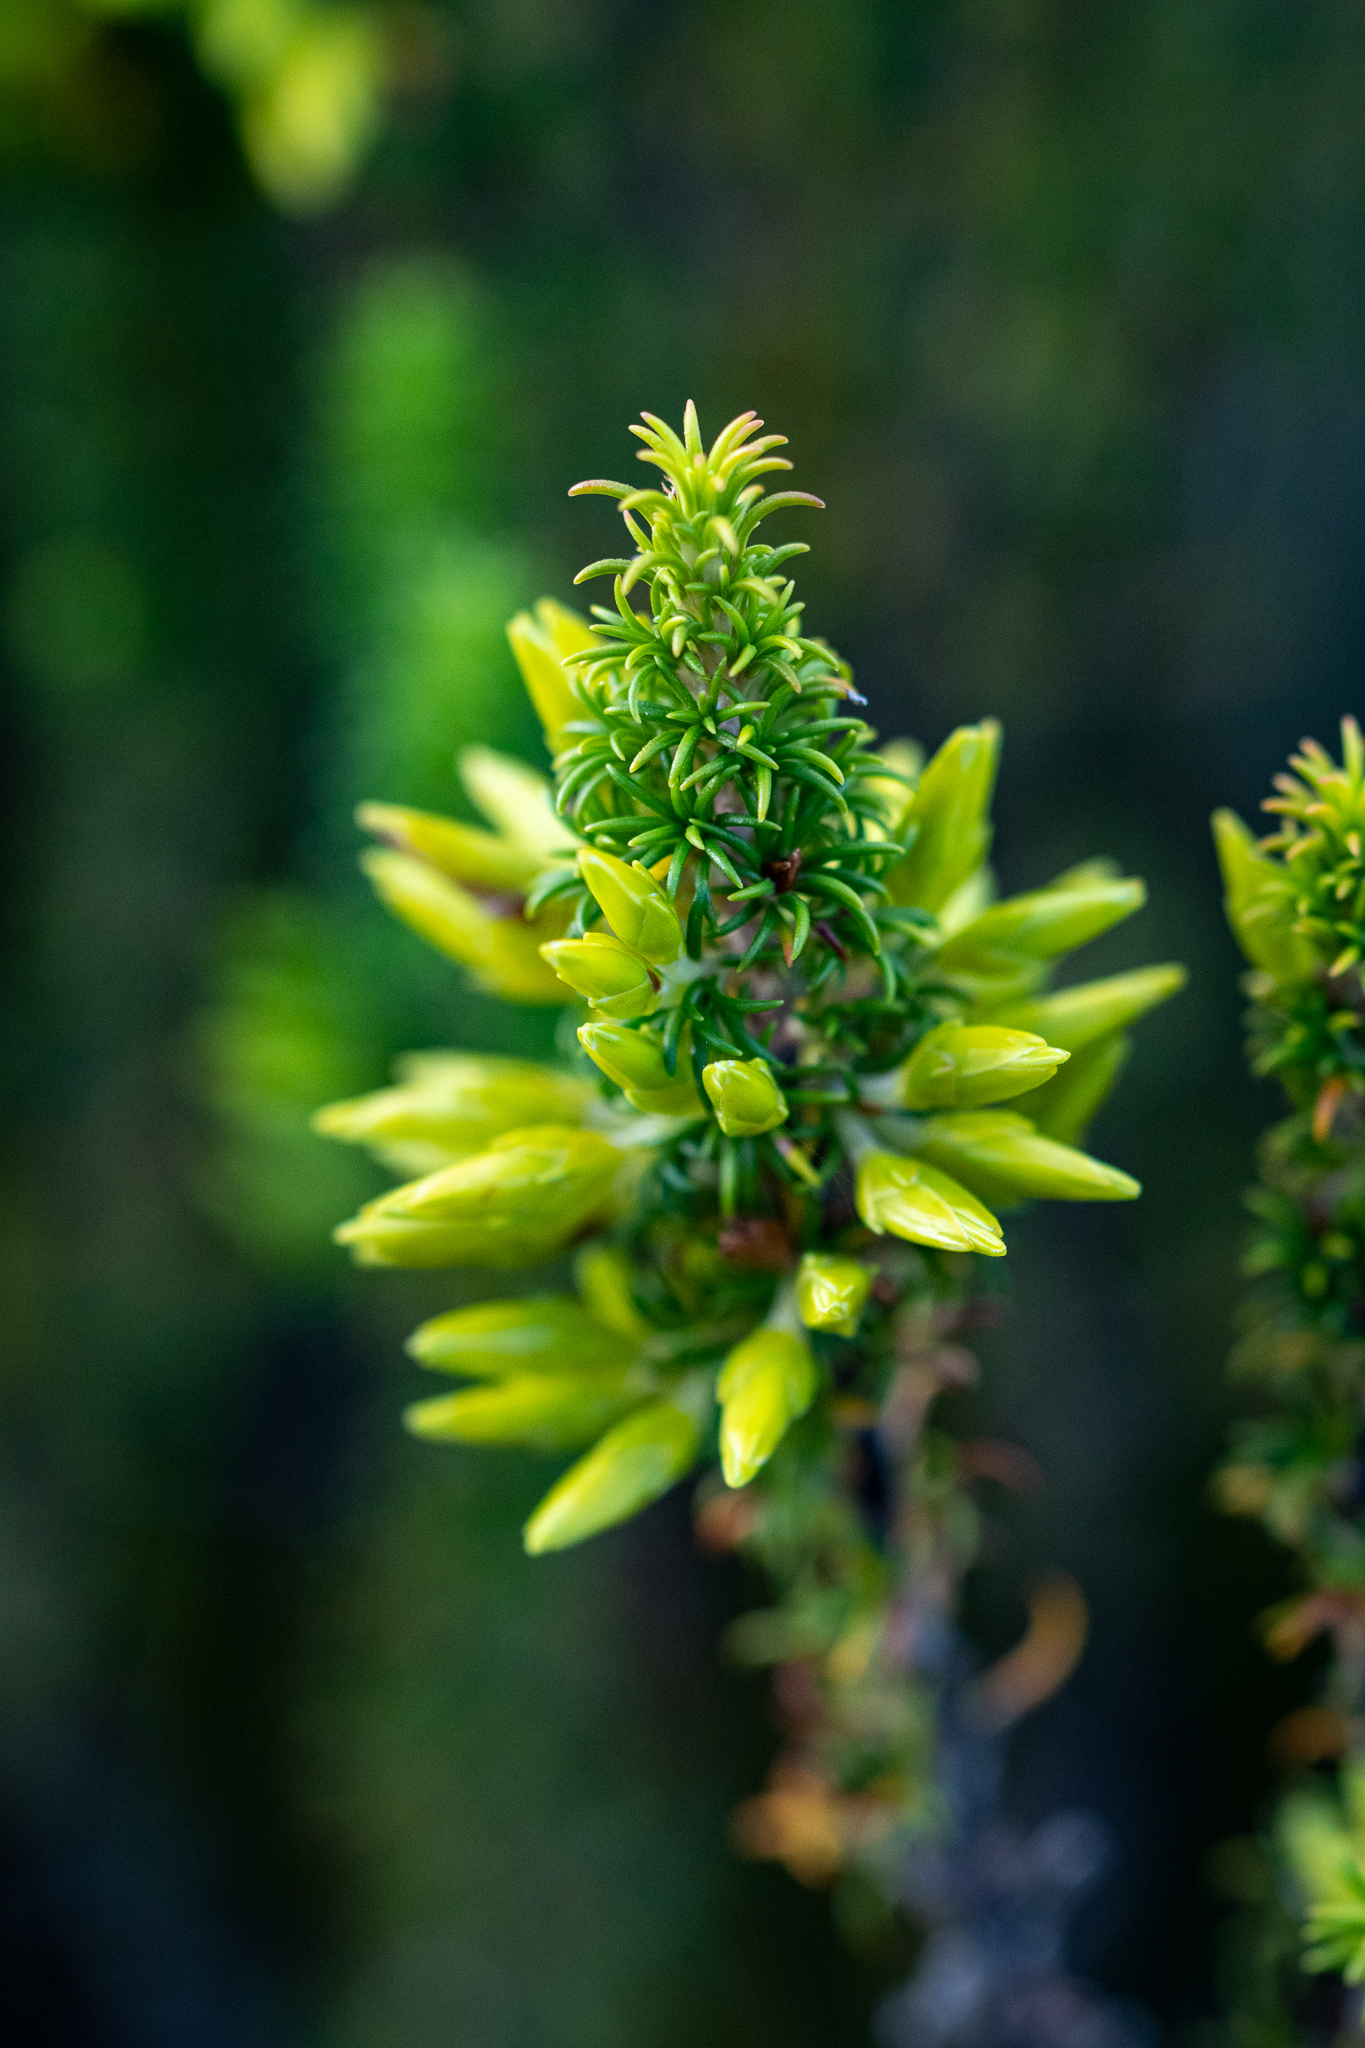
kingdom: Plantae
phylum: Tracheophyta
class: Magnoliopsida
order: Ericales
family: Ericaceae
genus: Erica
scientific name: Erica coccinea
